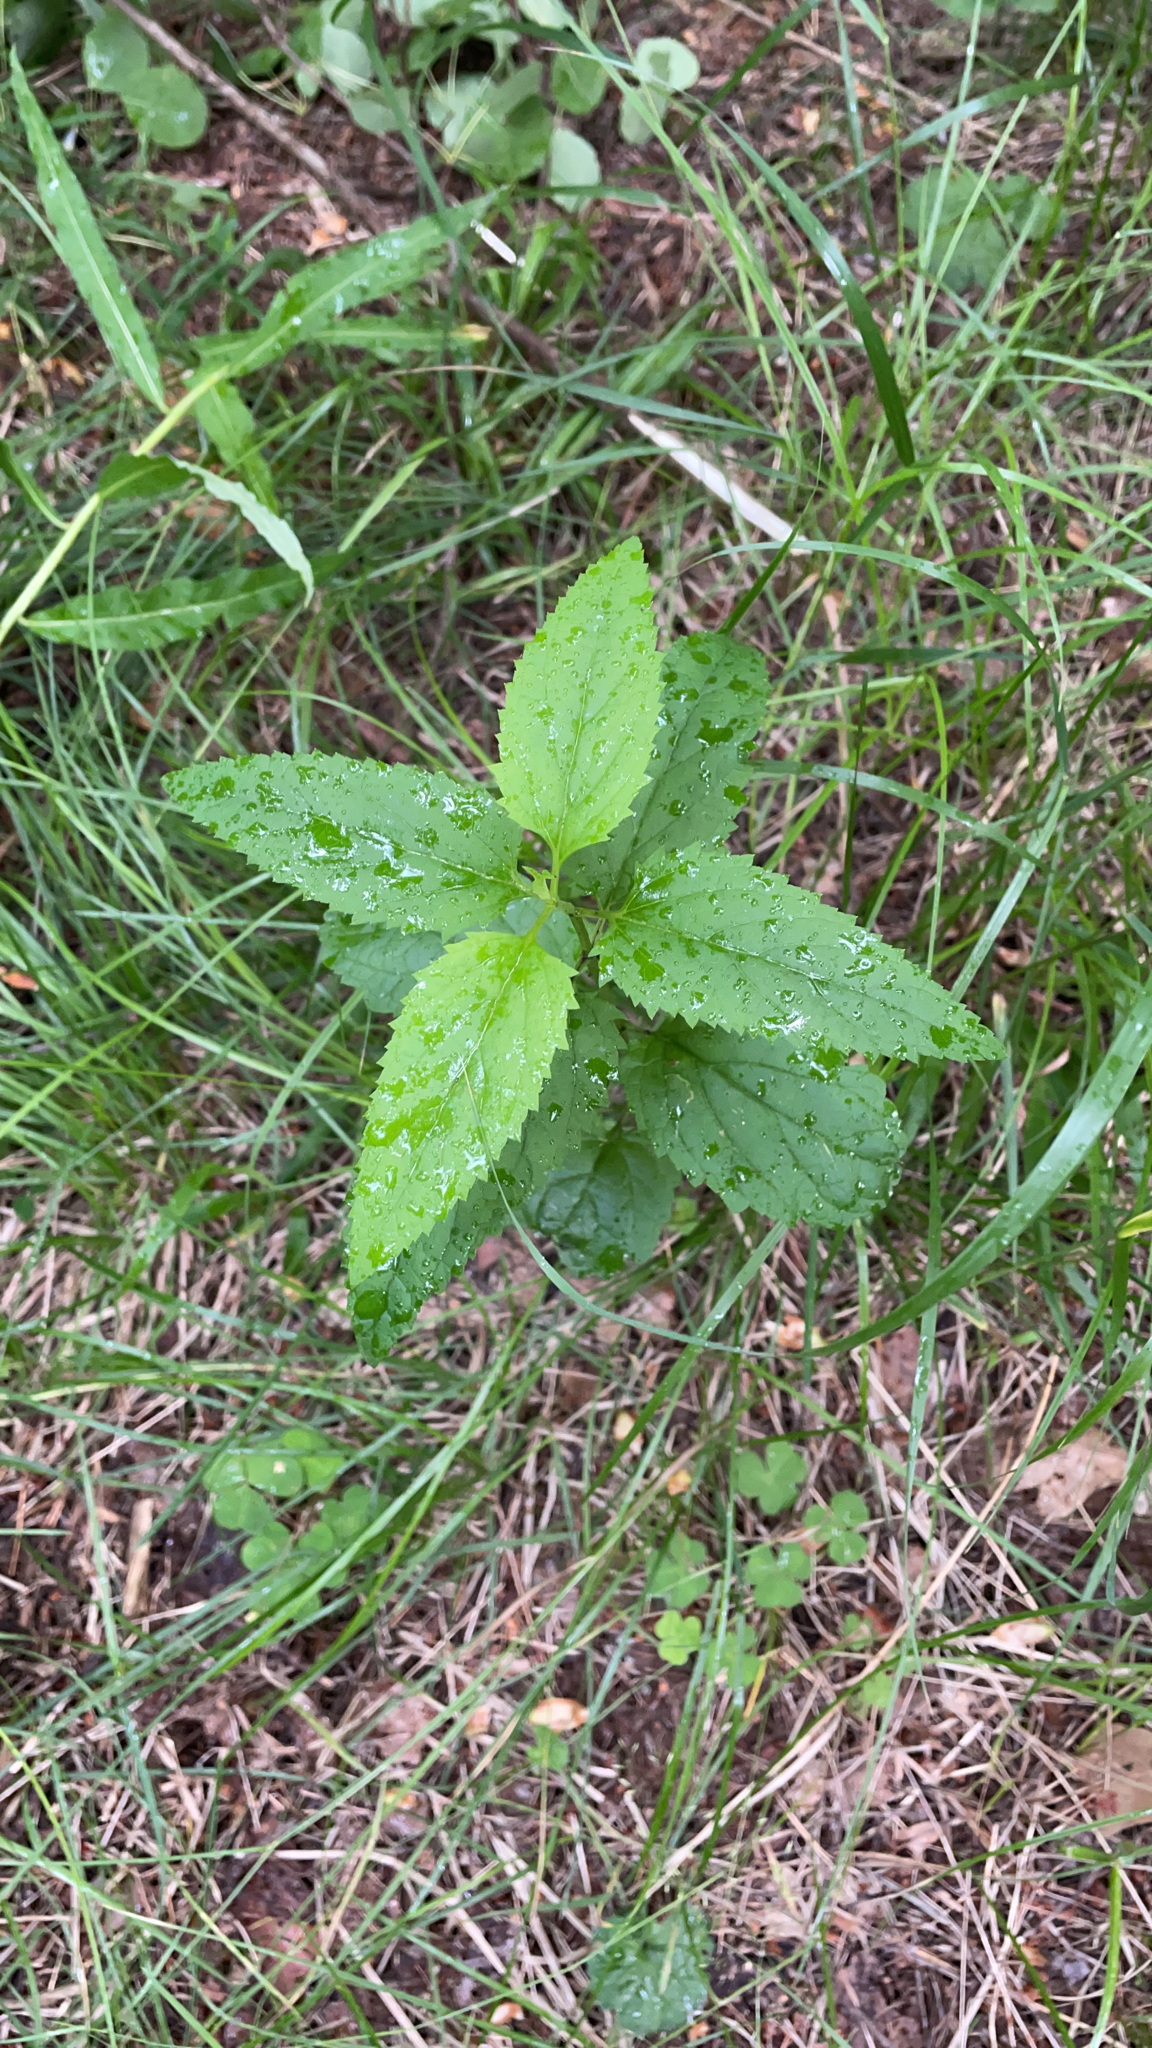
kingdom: Plantae
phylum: Tracheophyta
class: Magnoliopsida
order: Lamiales
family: Scrophulariaceae
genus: Scrophularia
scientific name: Scrophularia nodosa
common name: Common figwort
